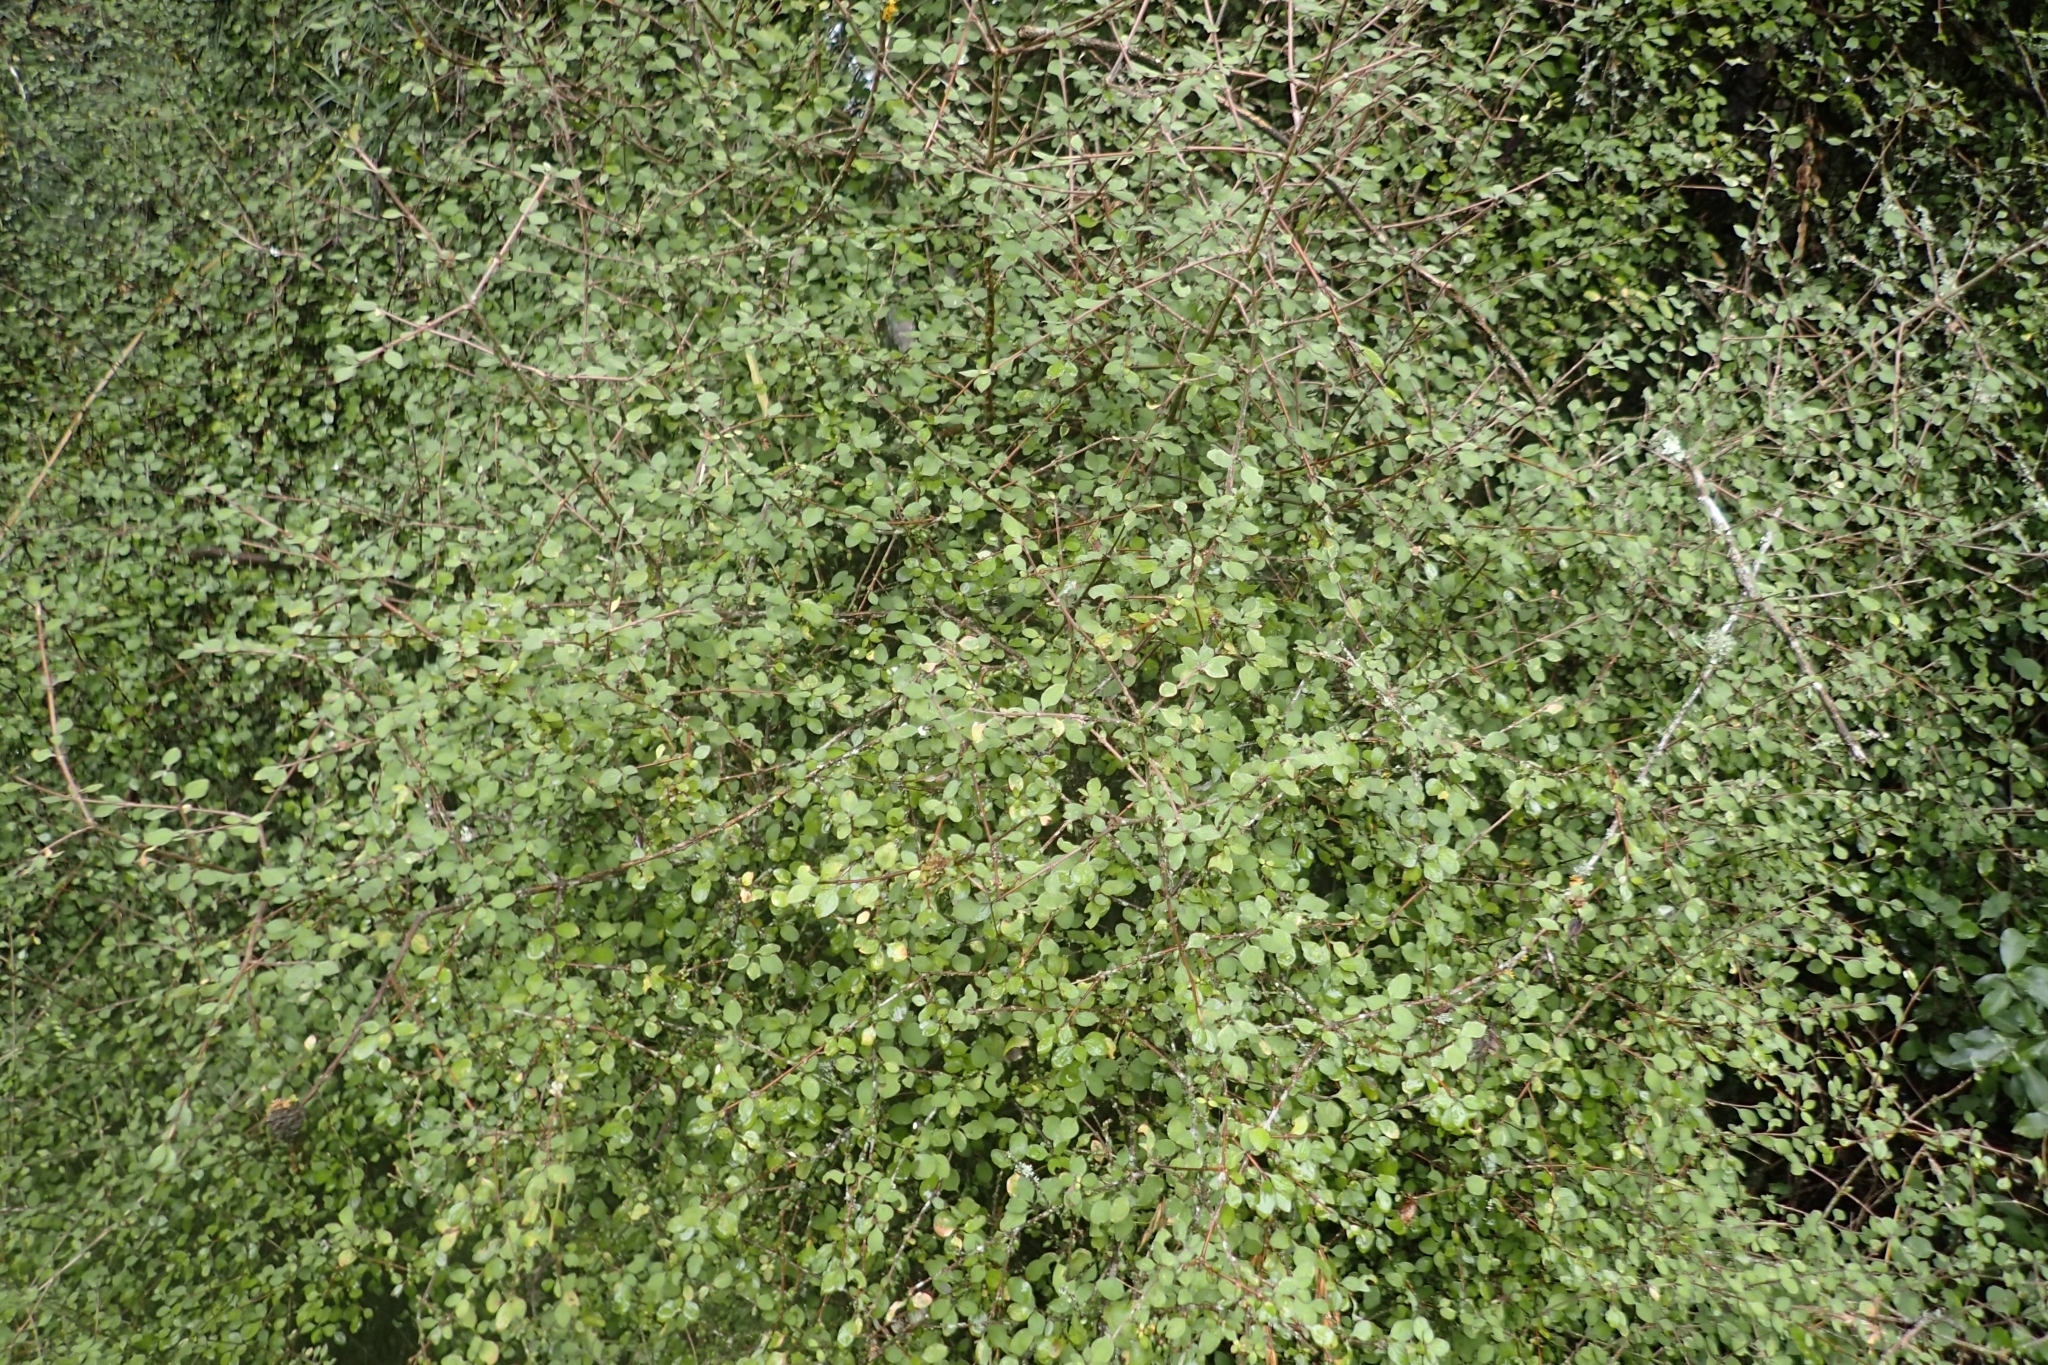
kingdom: Plantae
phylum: Tracheophyta
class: Magnoliopsida
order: Gentianales
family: Rubiaceae
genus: Coprosma
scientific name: Coprosma rubra
